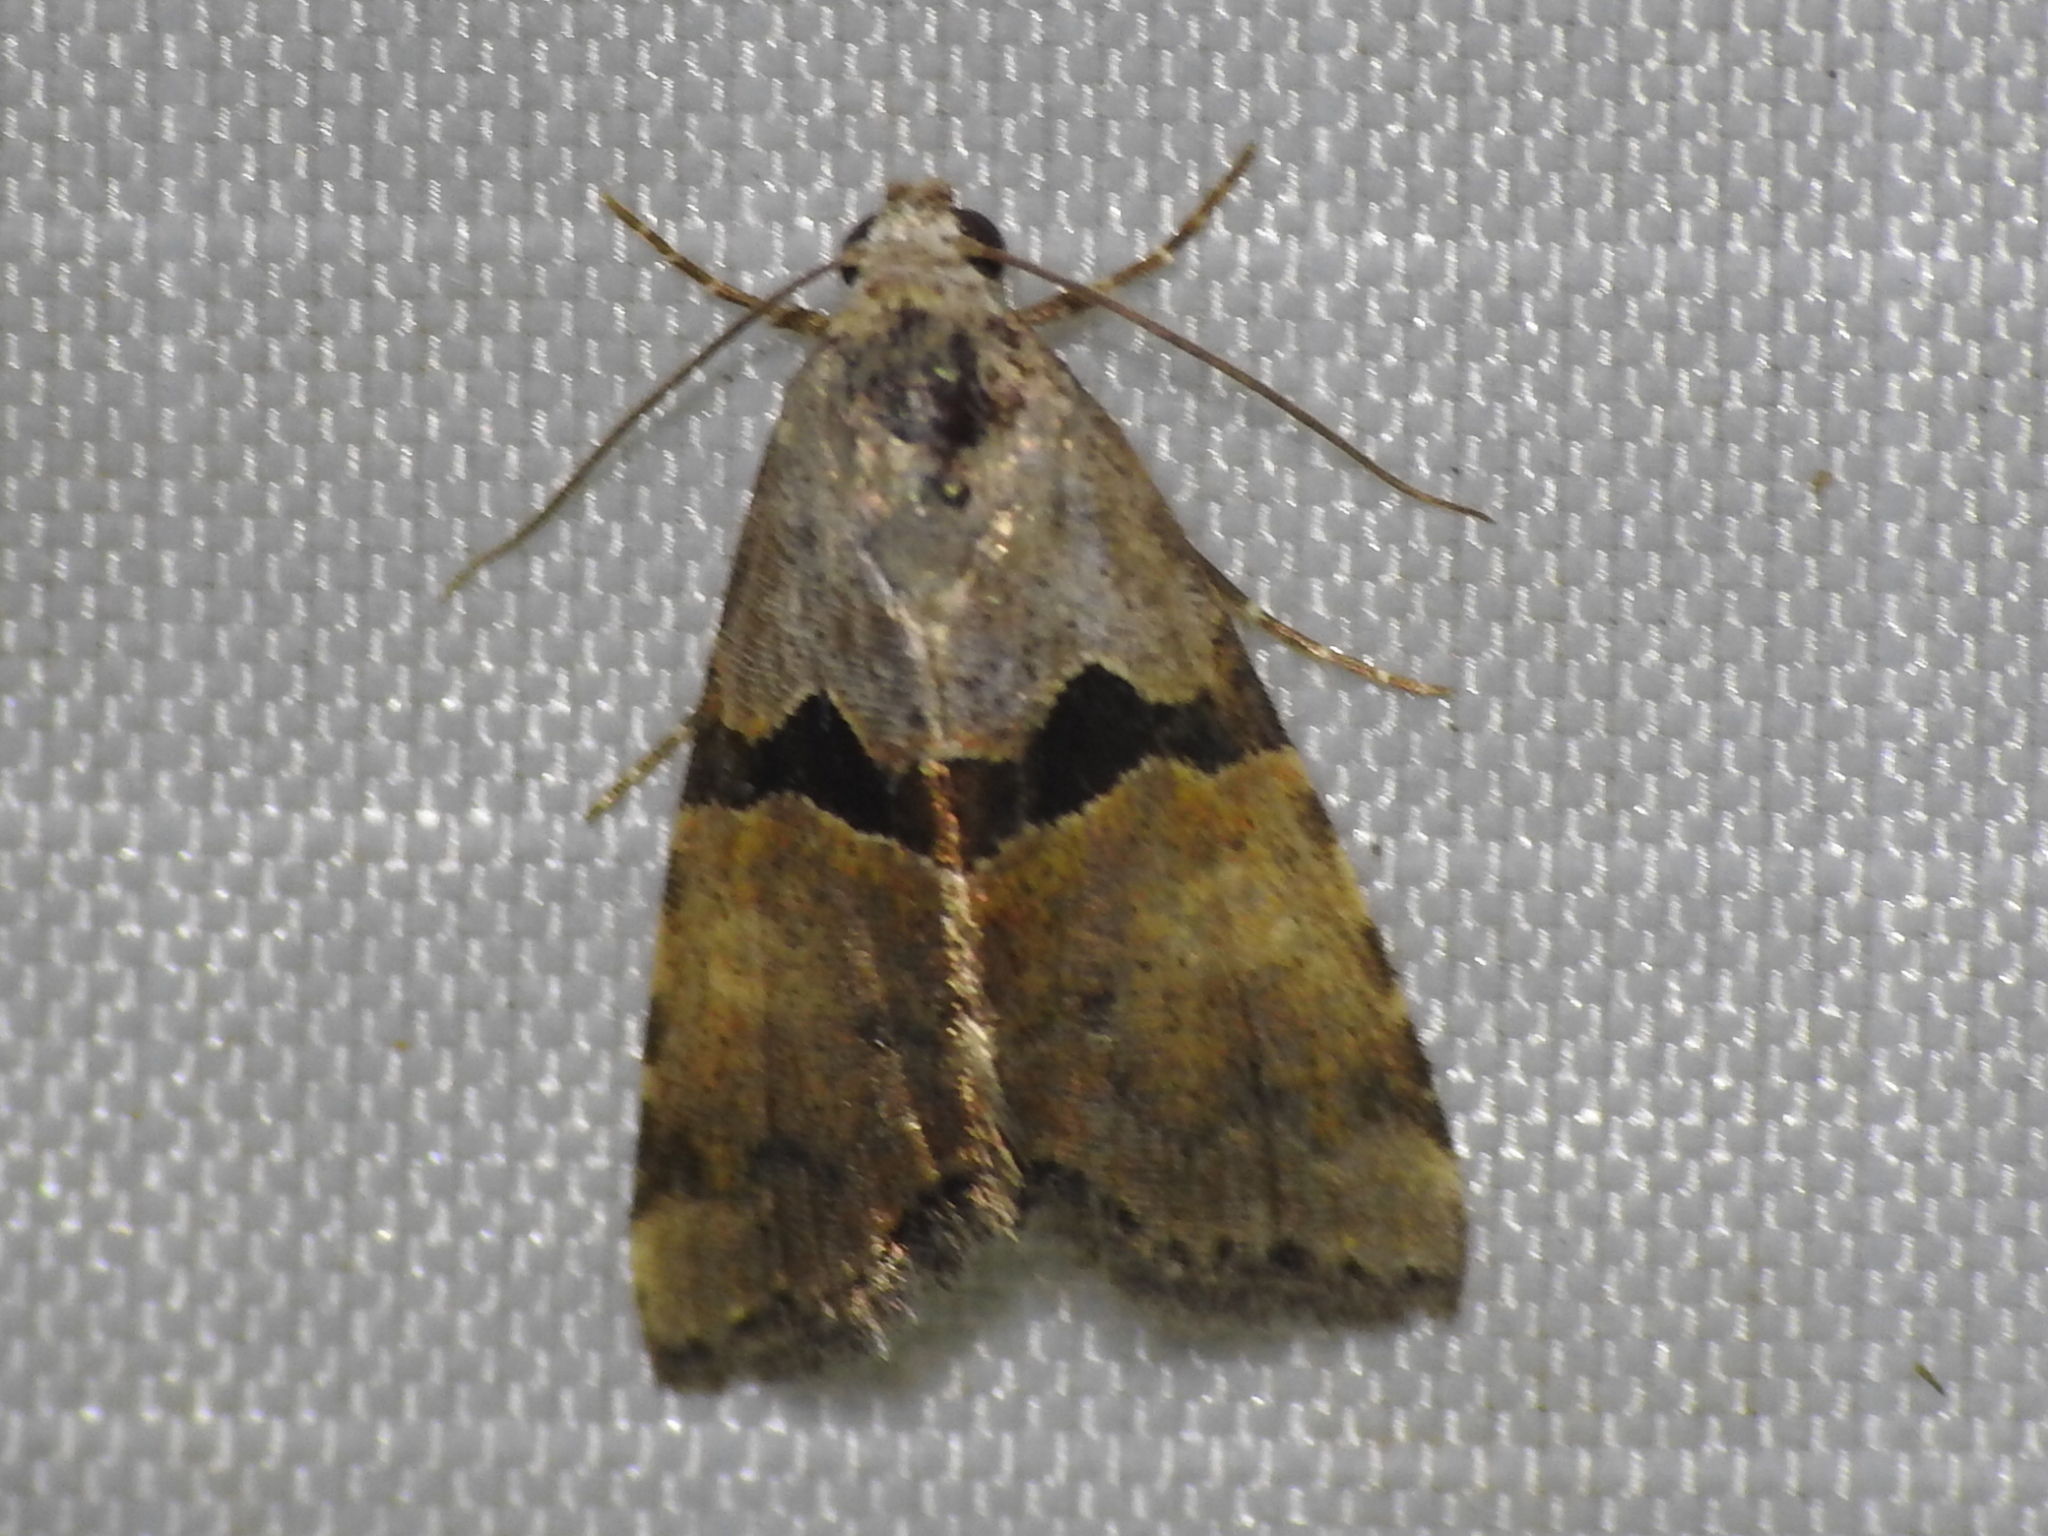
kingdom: Animalia
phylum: Arthropoda
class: Insecta
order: Lepidoptera
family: Noctuidae
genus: Cobubatha
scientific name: Cobubatha orthozona
